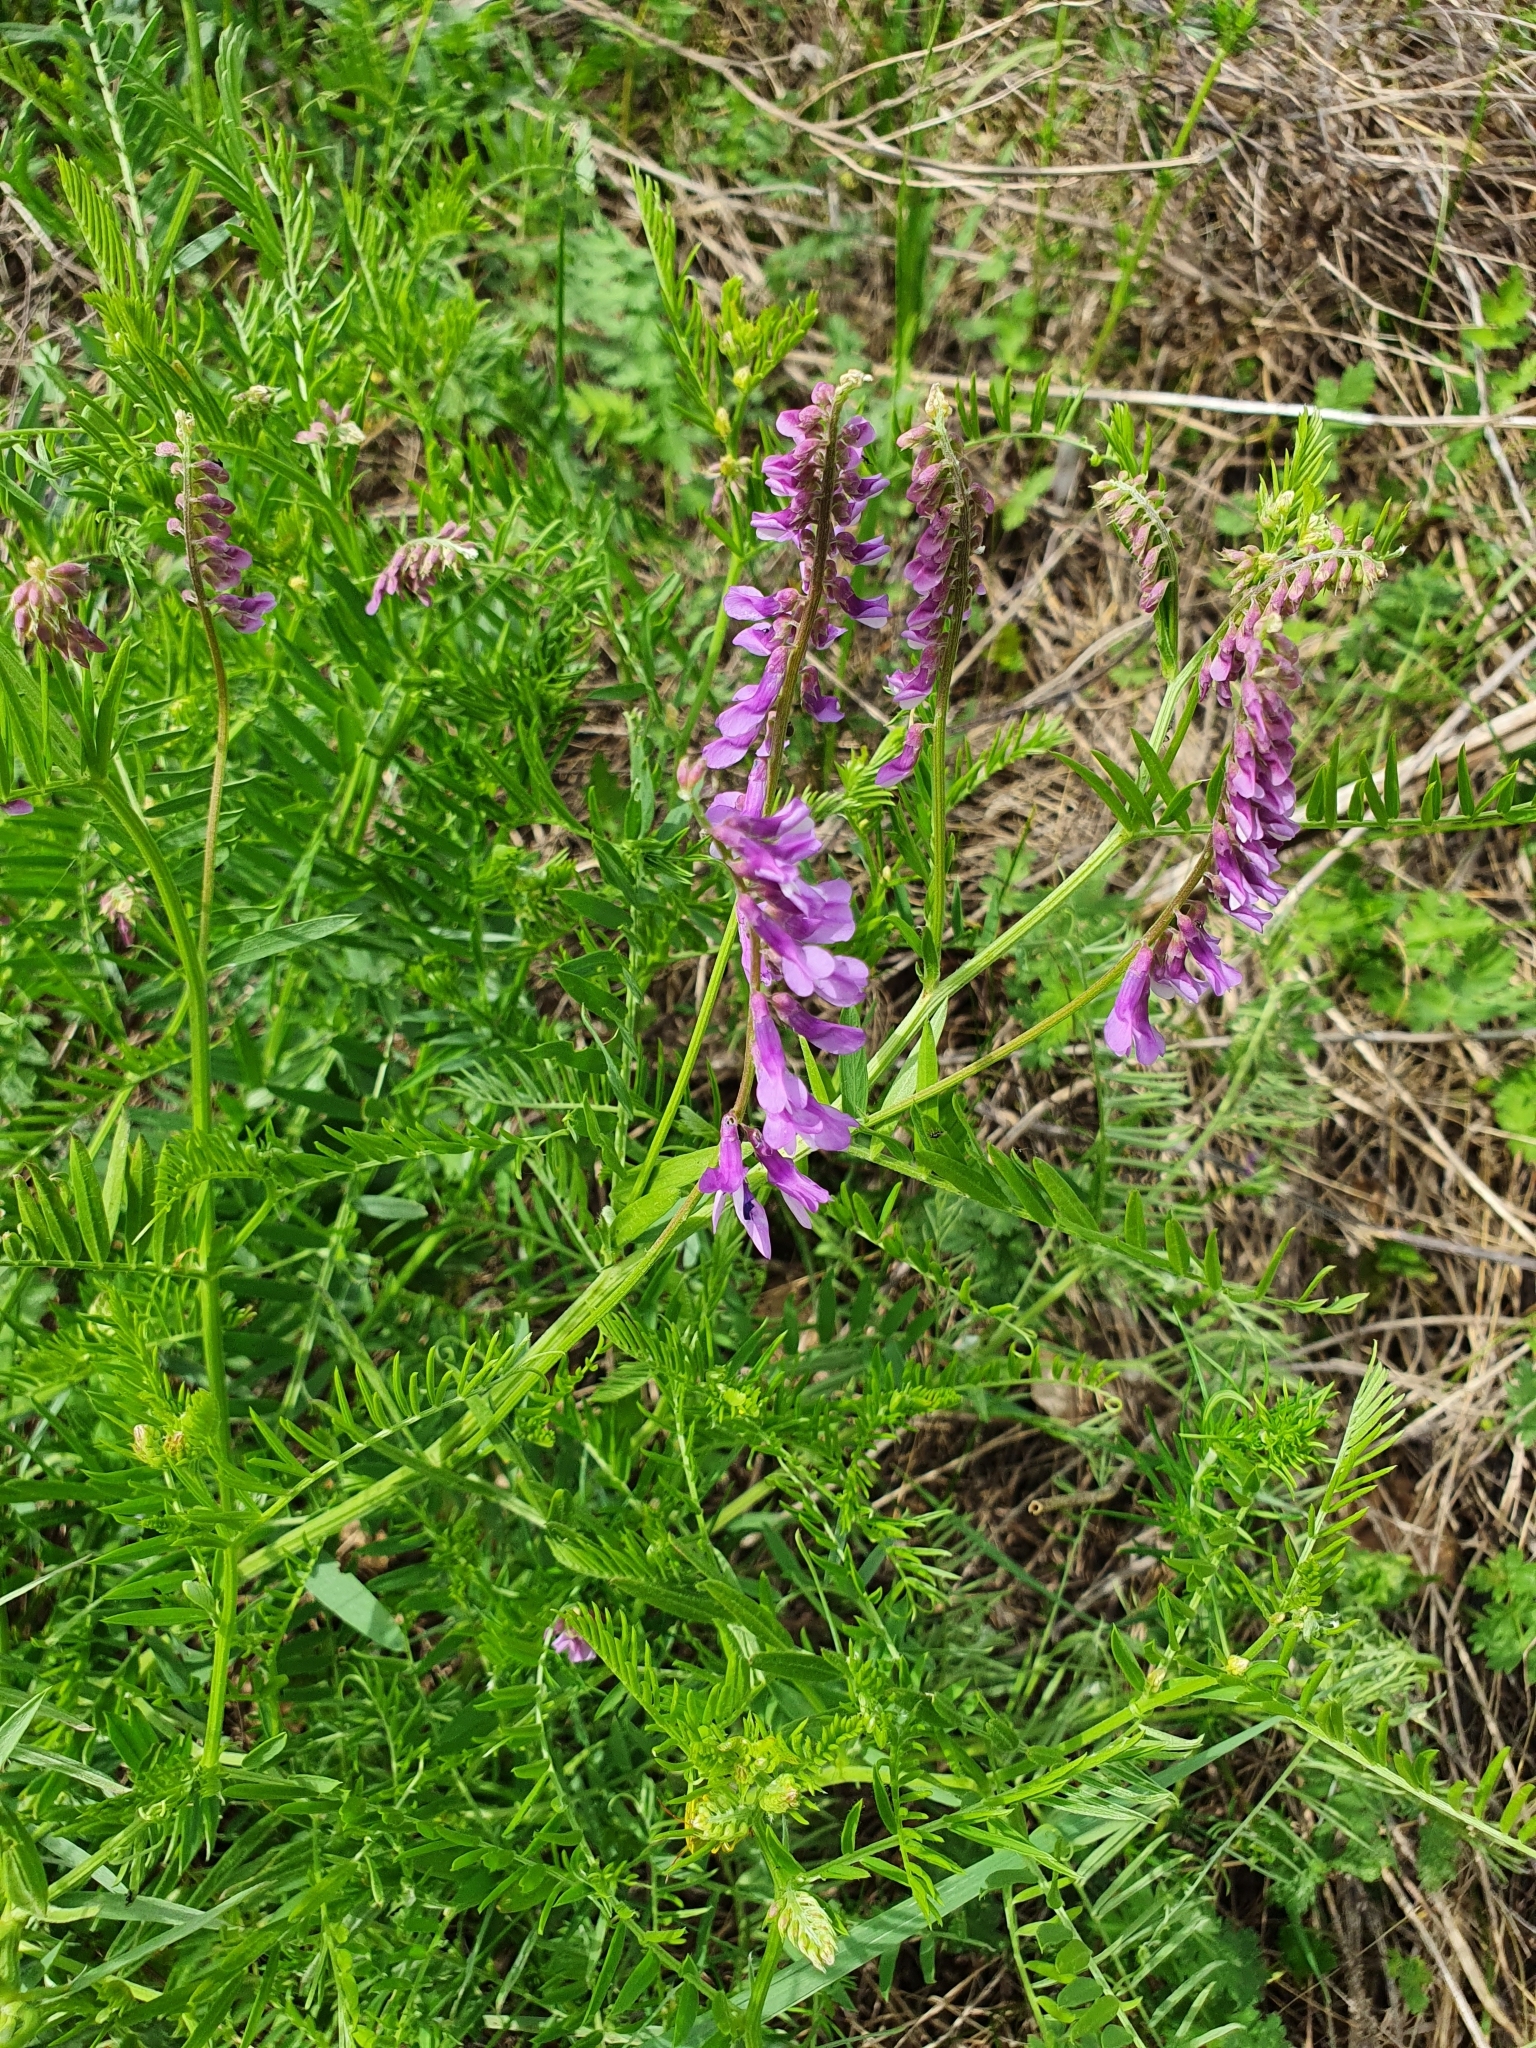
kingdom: Plantae
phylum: Tracheophyta
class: Magnoliopsida
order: Fabales
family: Fabaceae
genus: Vicia
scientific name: Vicia tenuifolia
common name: Fine-leaved vetch
